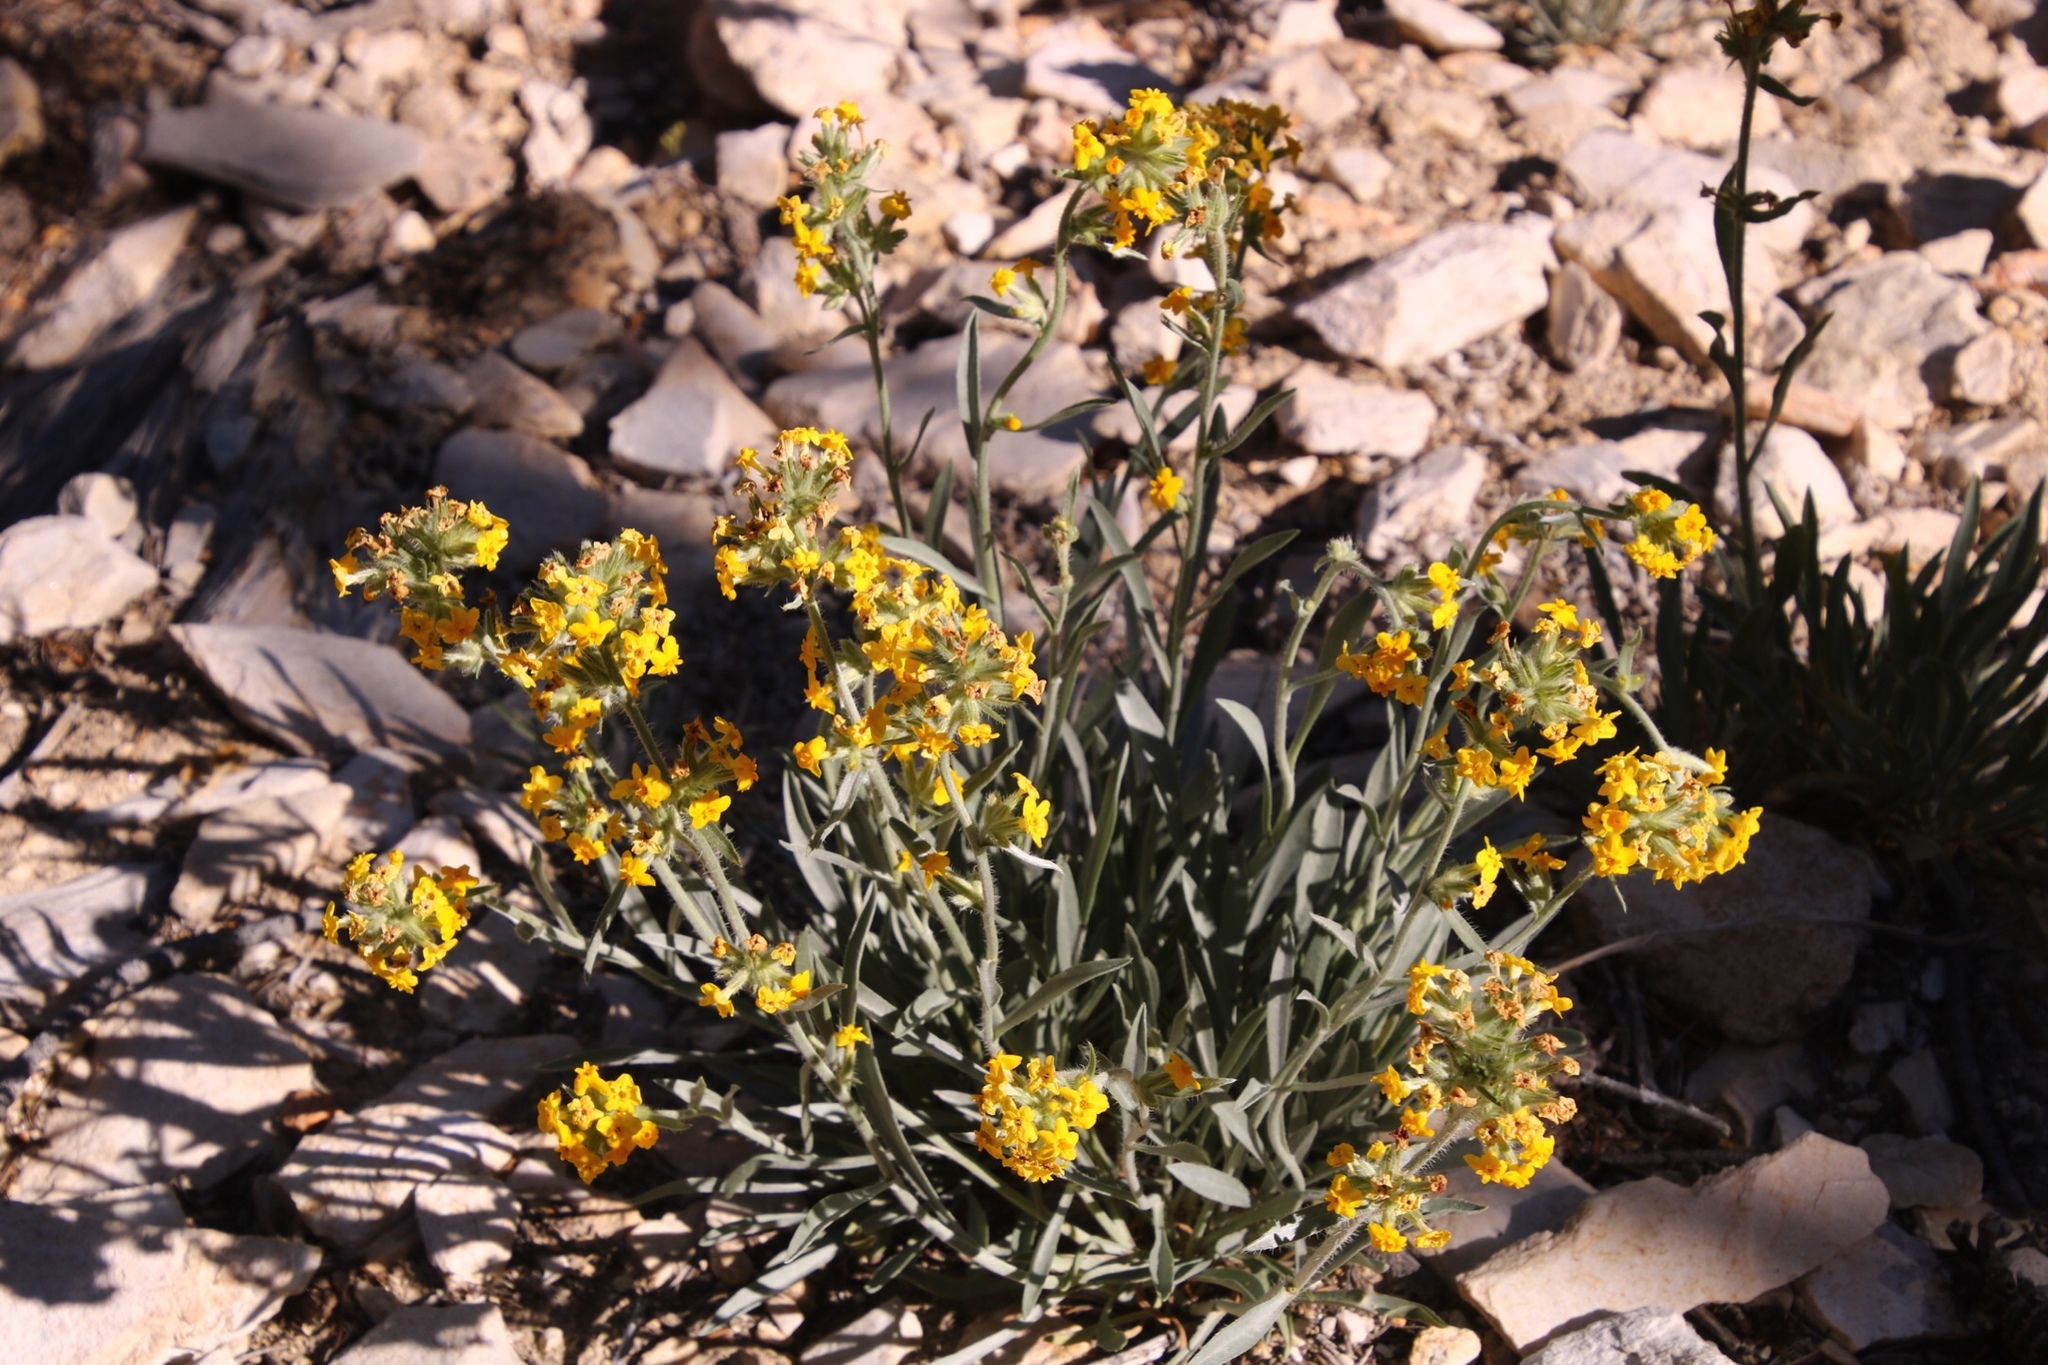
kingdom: Plantae
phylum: Tracheophyta
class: Magnoliopsida
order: Boraginales
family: Boraginaceae
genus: Oreocarya
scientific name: Oreocarya confertiflora
